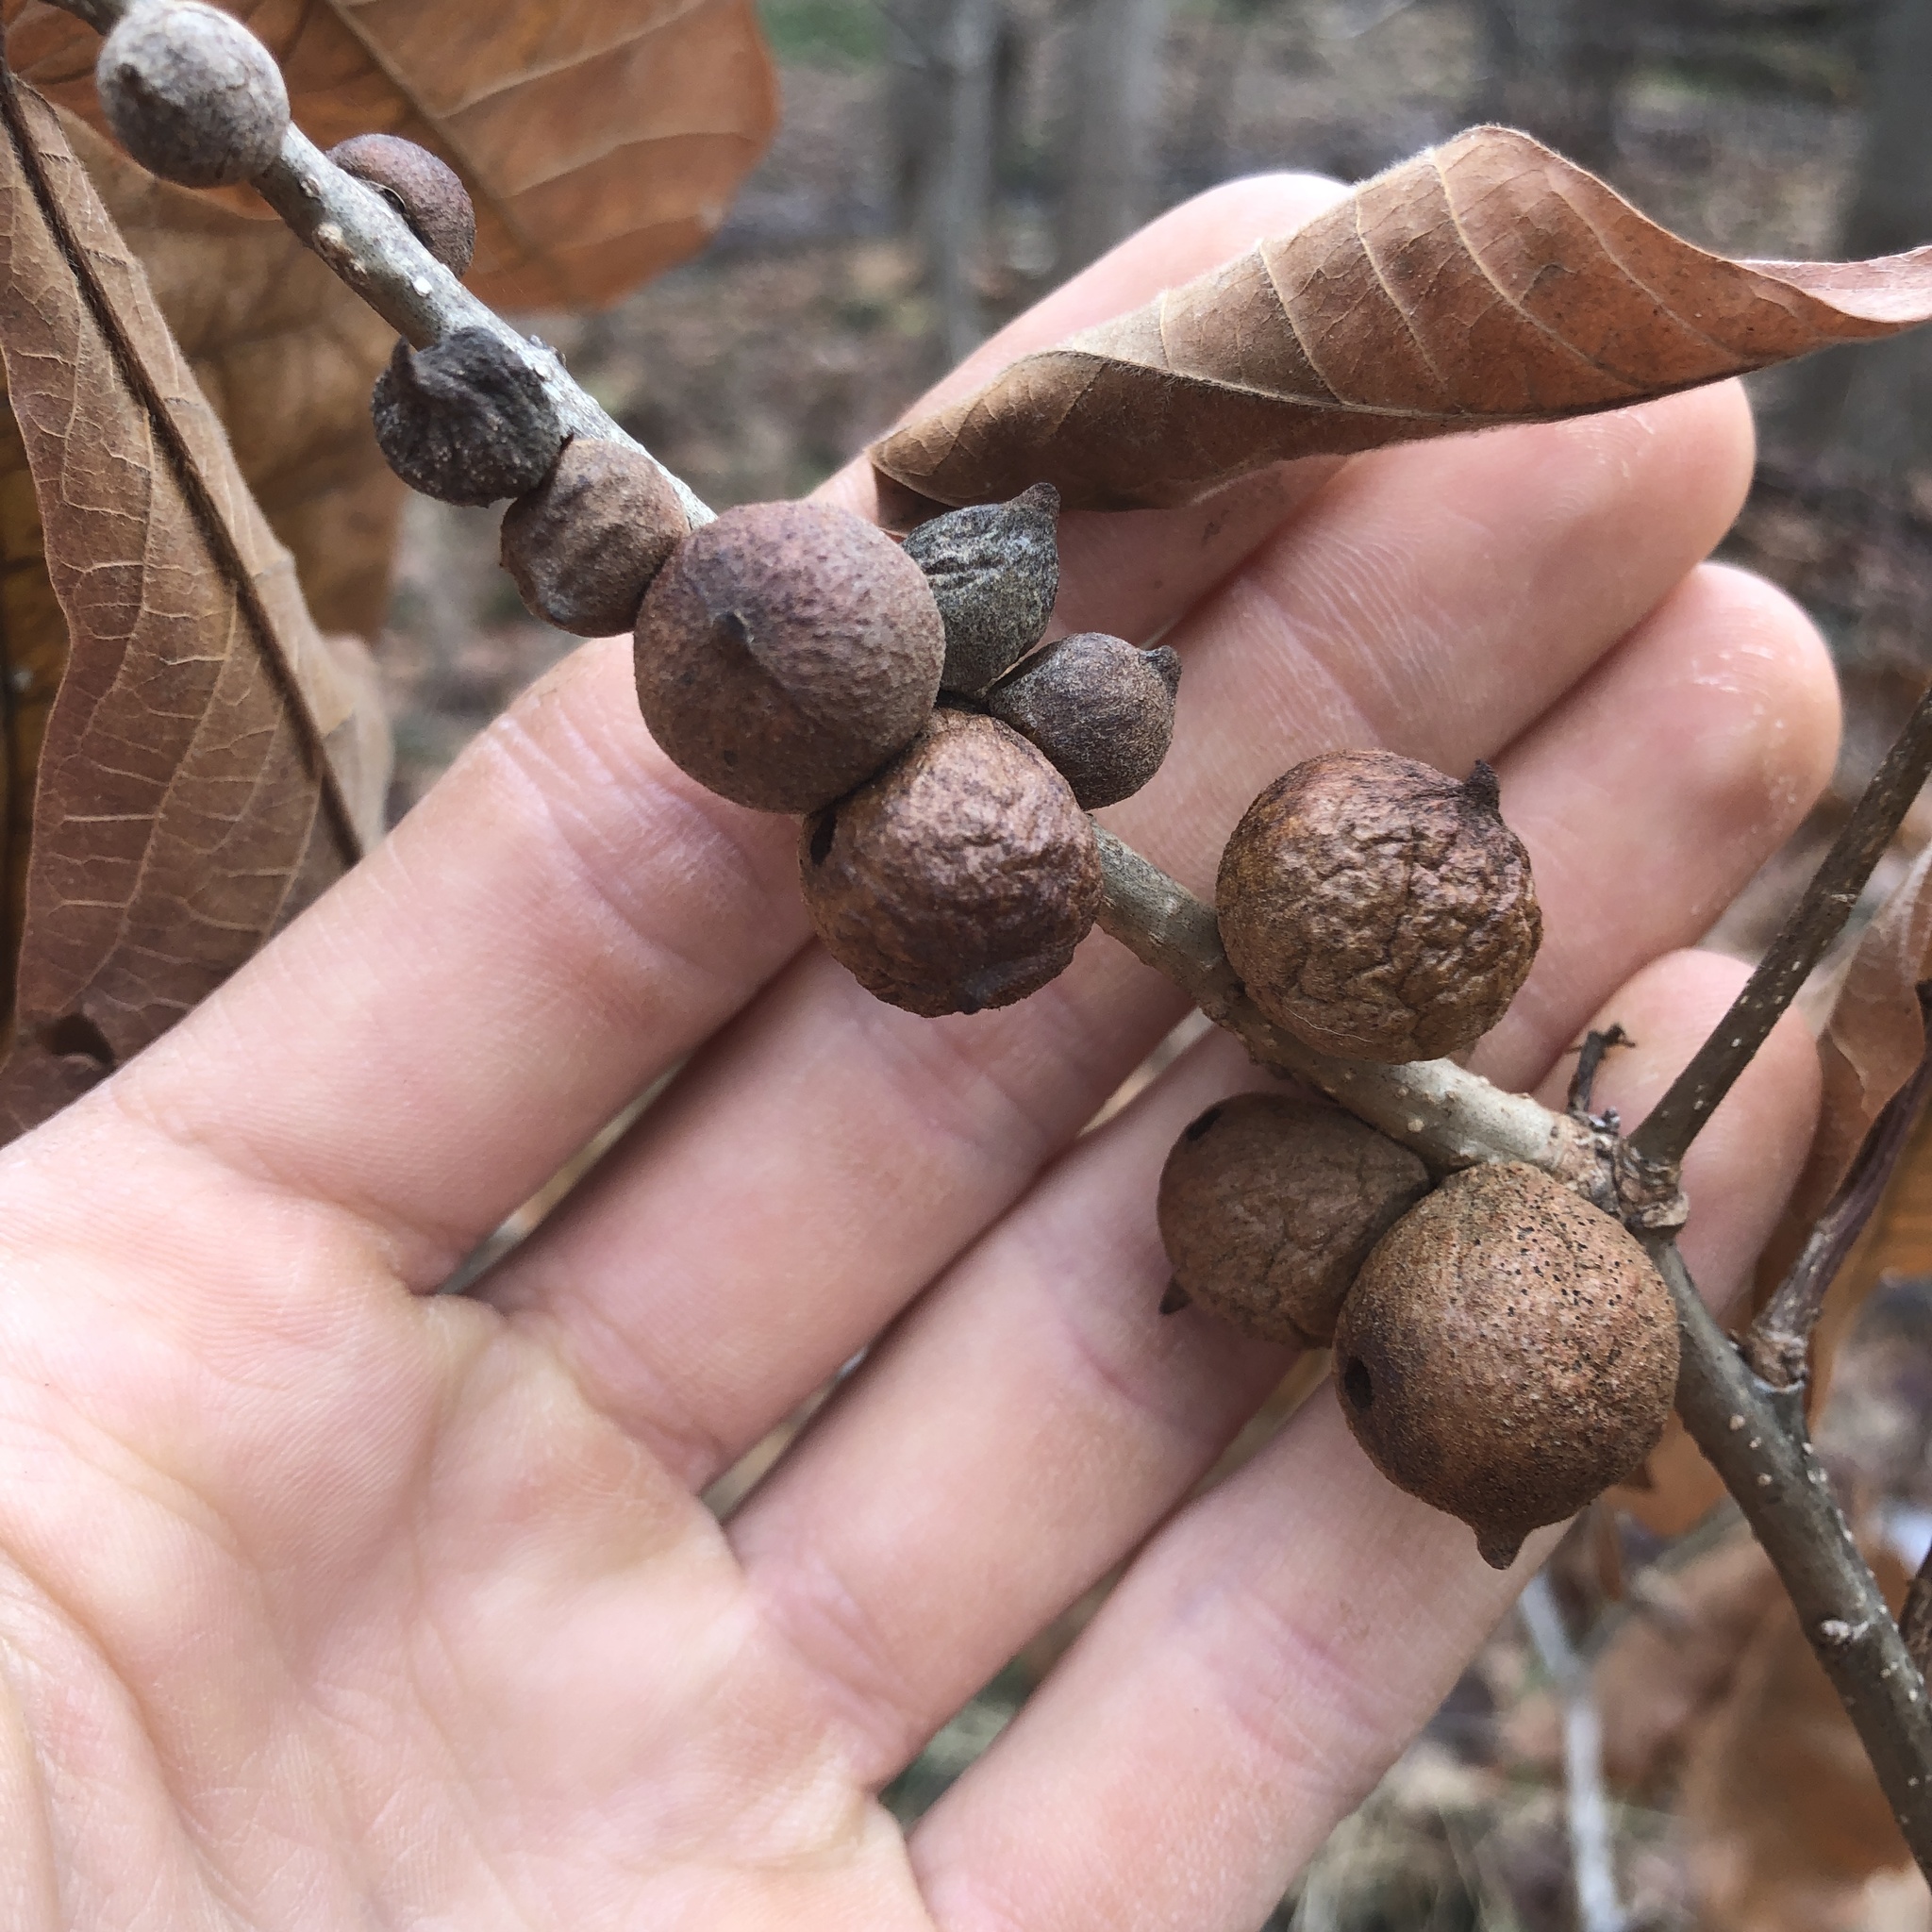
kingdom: Animalia
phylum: Arthropoda
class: Insecta
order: Hymenoptera
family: Cynipidae
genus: Disholcaspis
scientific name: Disholcaspis quercusglobulus
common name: Round bullet gall wasp
